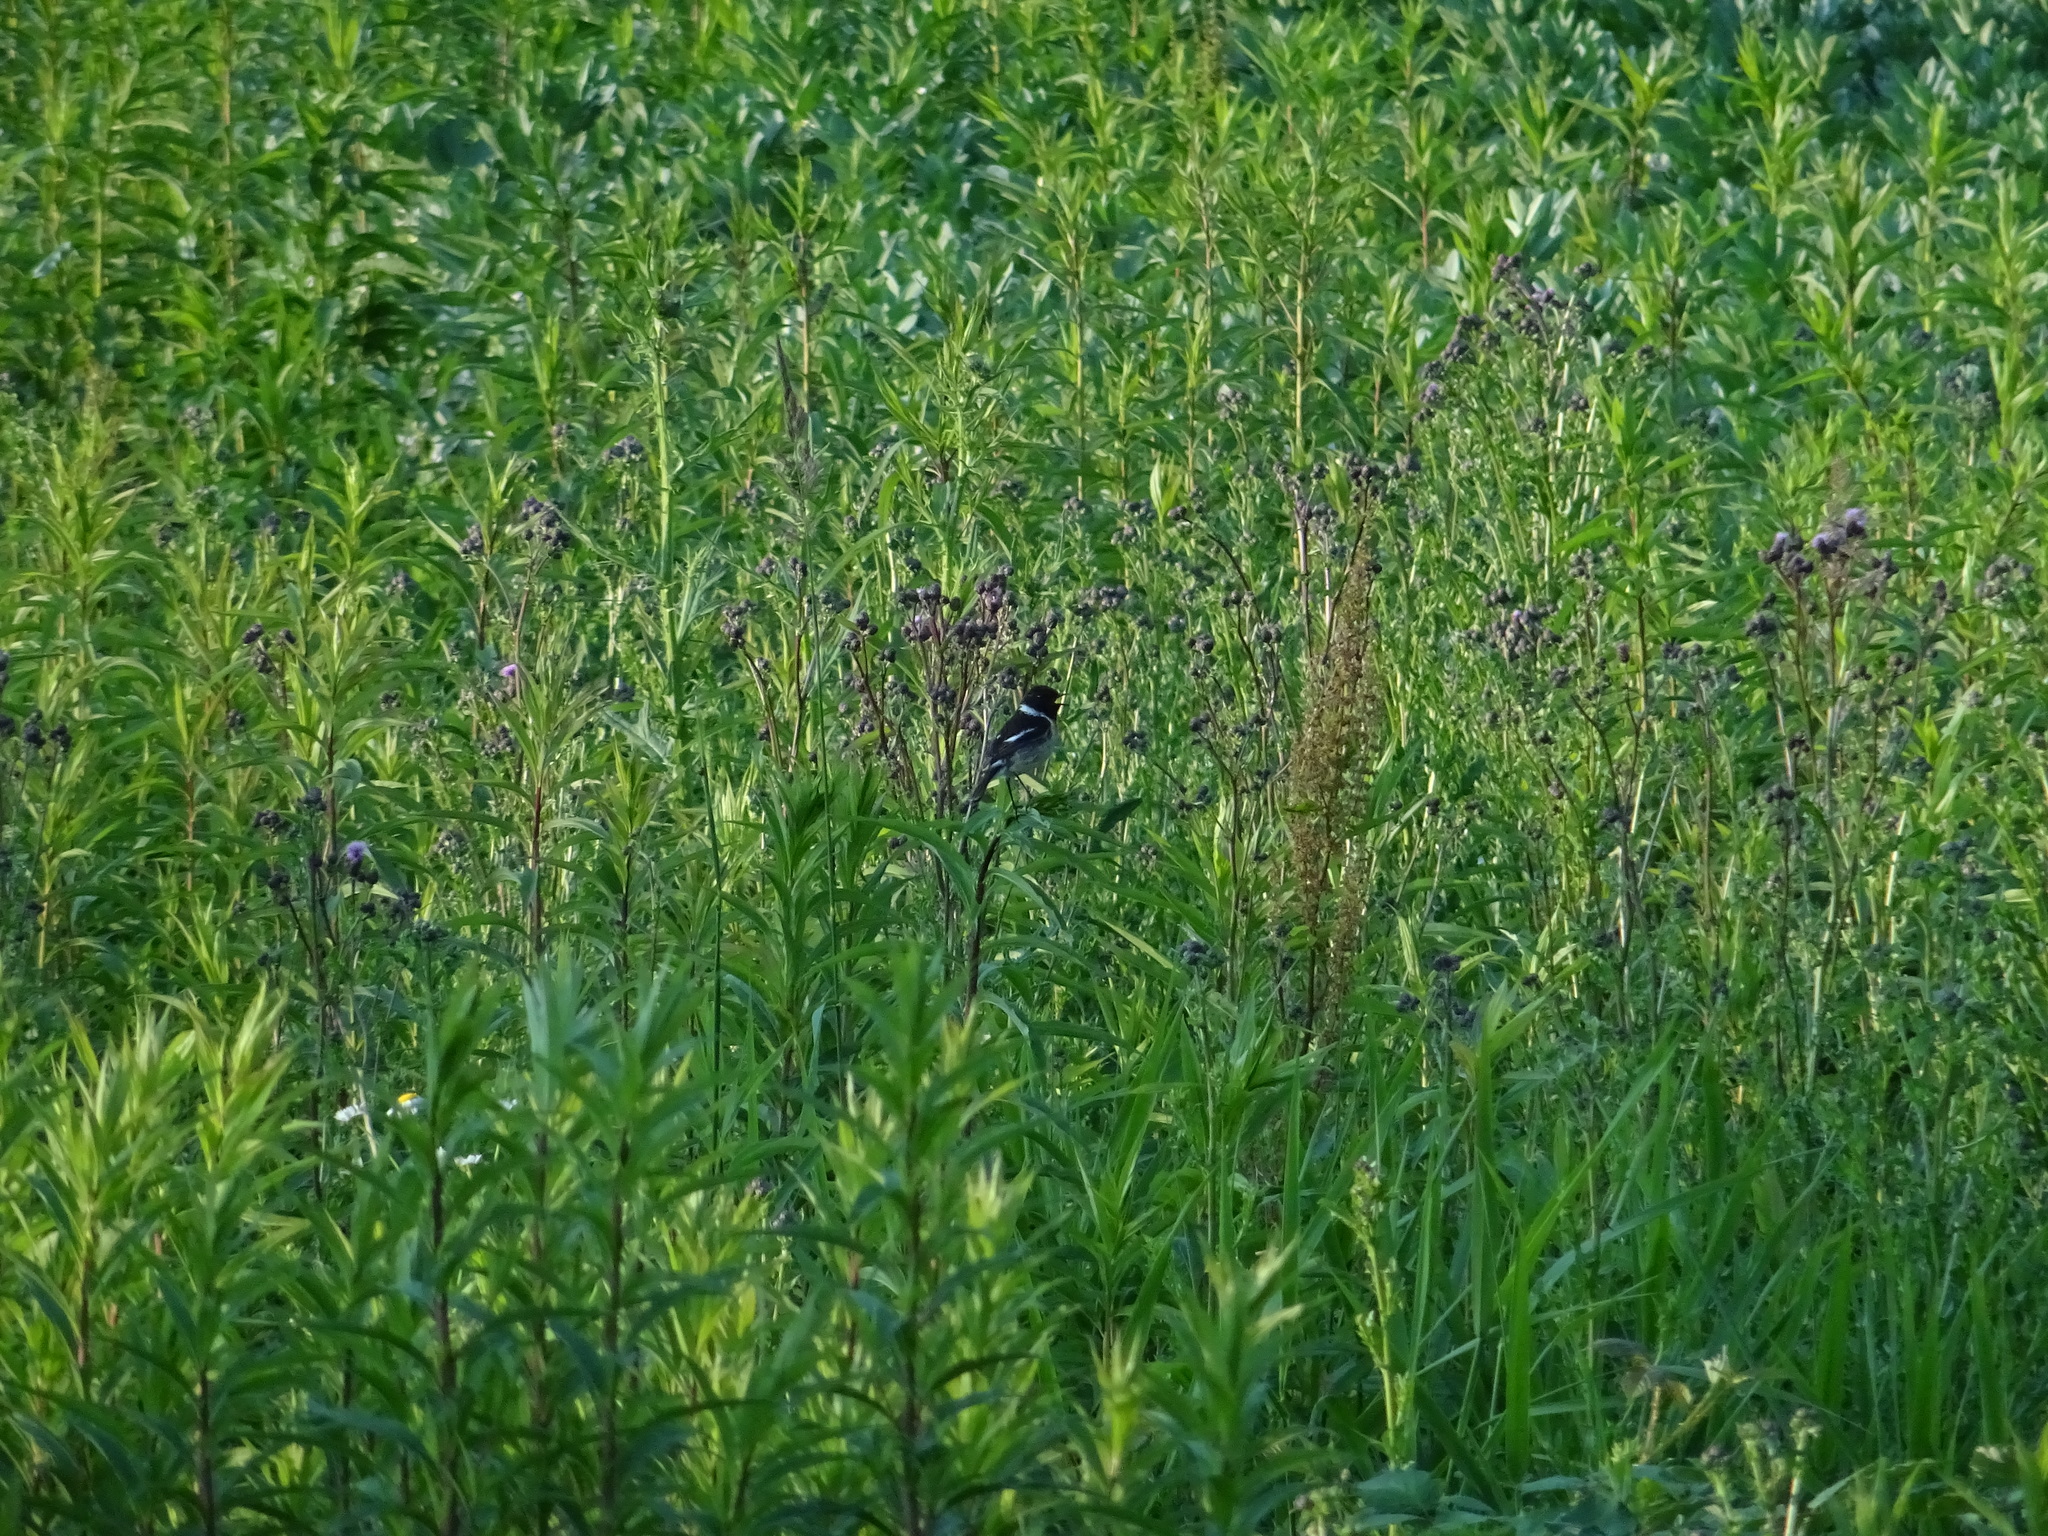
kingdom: Animalia
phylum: Chordata
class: Aves
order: Passeriformes
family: Muscicapidae
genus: Saxicola
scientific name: Saxicola rubicola
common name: European stonechat
